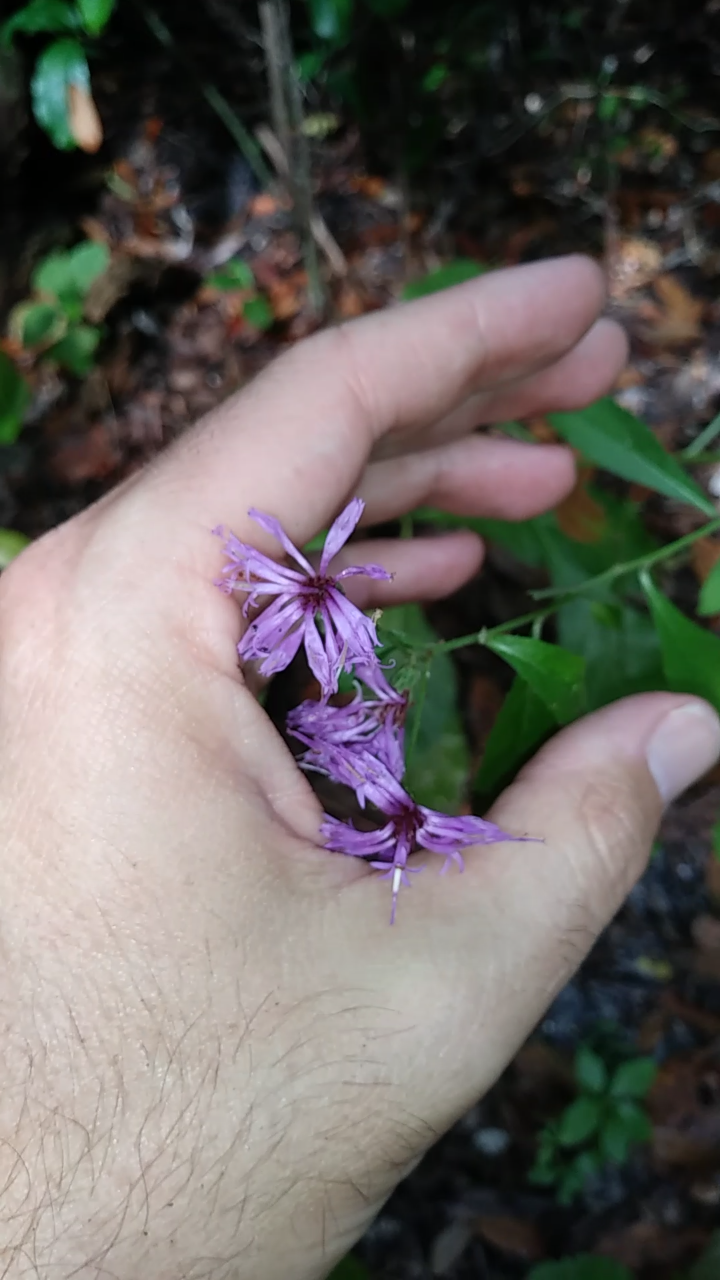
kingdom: Plantae
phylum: Tracheophyta
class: Magnoliopsida
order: Asterales
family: Asteraceae
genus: Vernonia
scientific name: Vernonia gigantea
